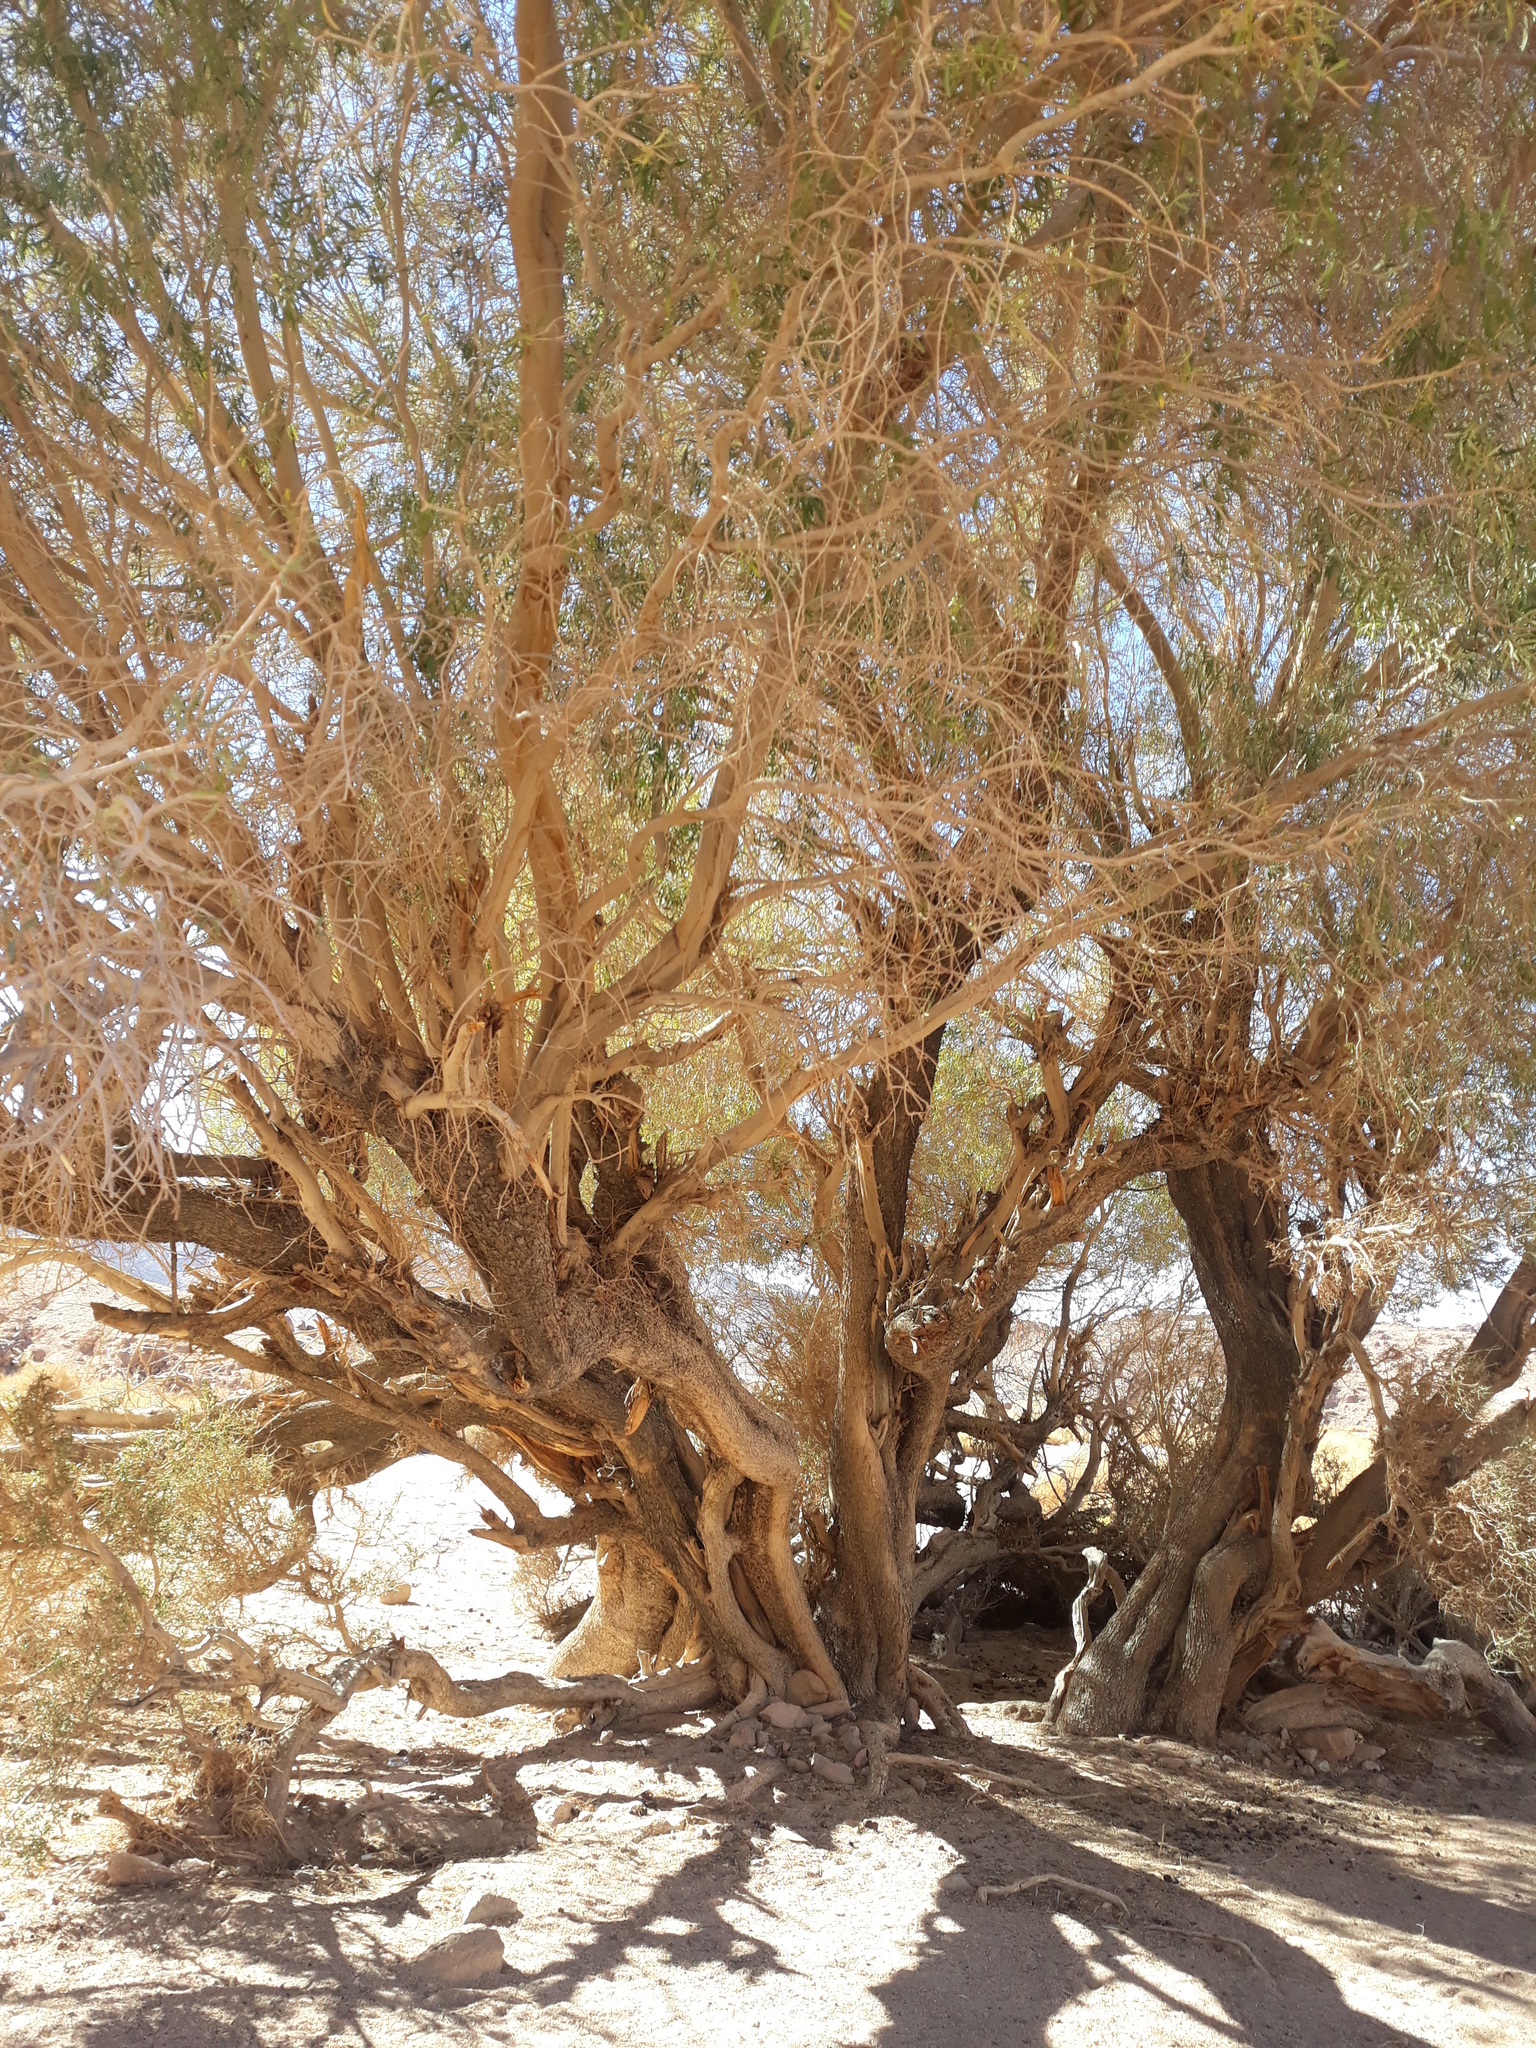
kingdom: Plantae
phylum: Tracheophyta
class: Magnoliopsida
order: Lamiales
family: Oleaceae
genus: Olea
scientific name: Olea europaea
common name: Olive
